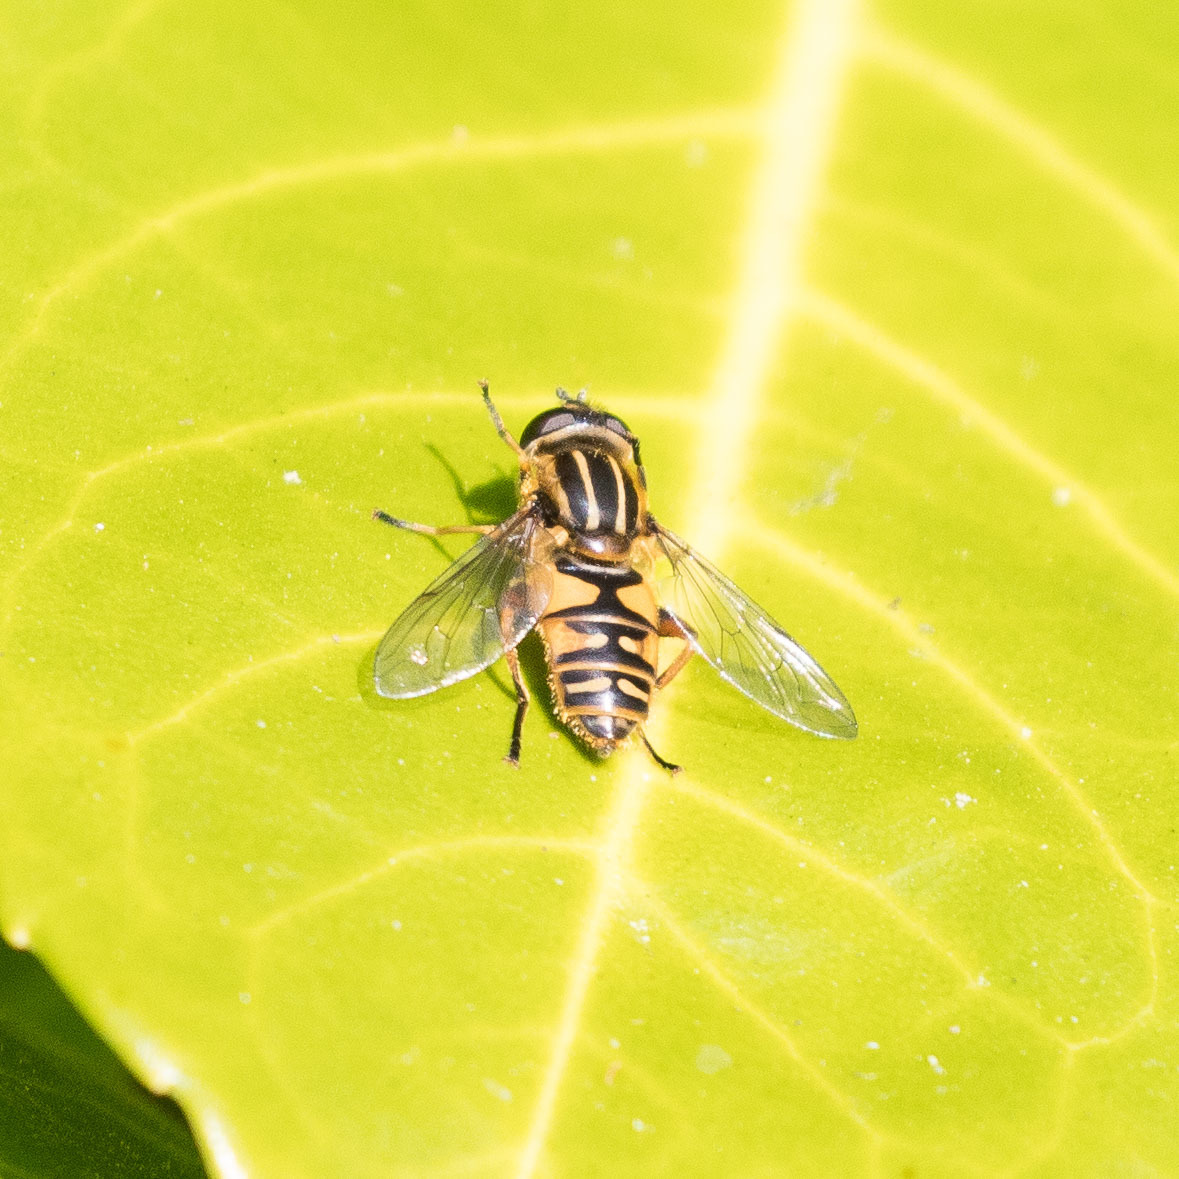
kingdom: Animalia
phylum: Arthropoda
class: Insecta
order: Diptera
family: Syrphidae
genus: Helophilus
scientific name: Helophilus pendulus
